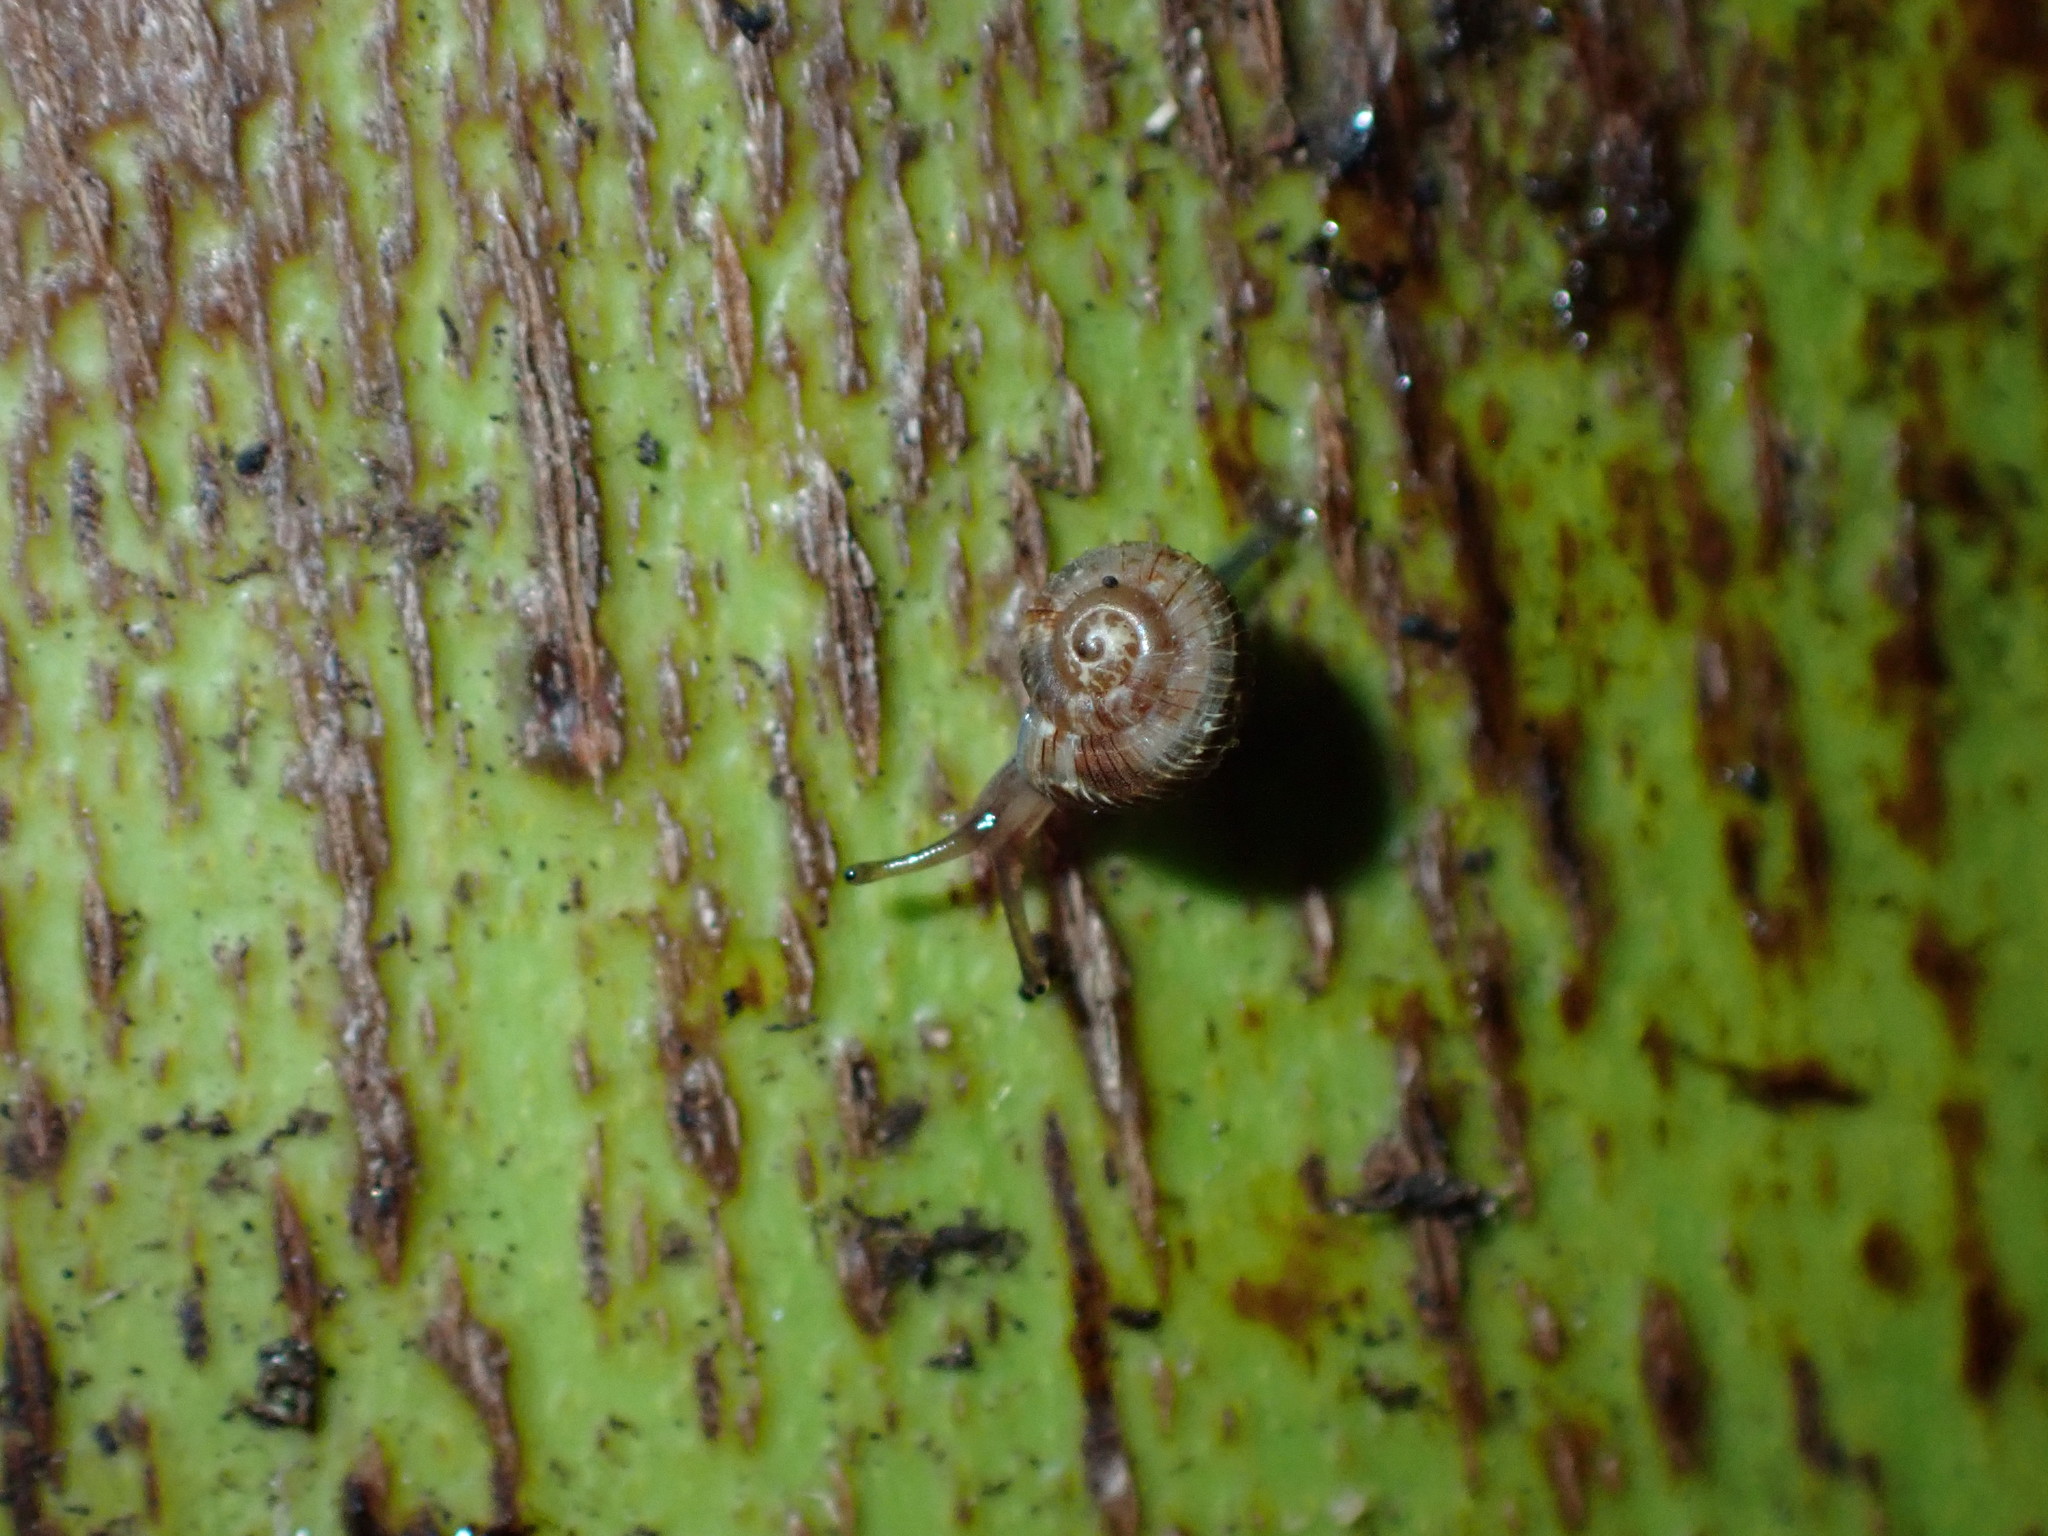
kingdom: Animalia
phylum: Mollusca
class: Gastropoda
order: Stylommatophora
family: Charopidae
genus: Phenacohelix
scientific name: Phenacohelix ponsonbyi
